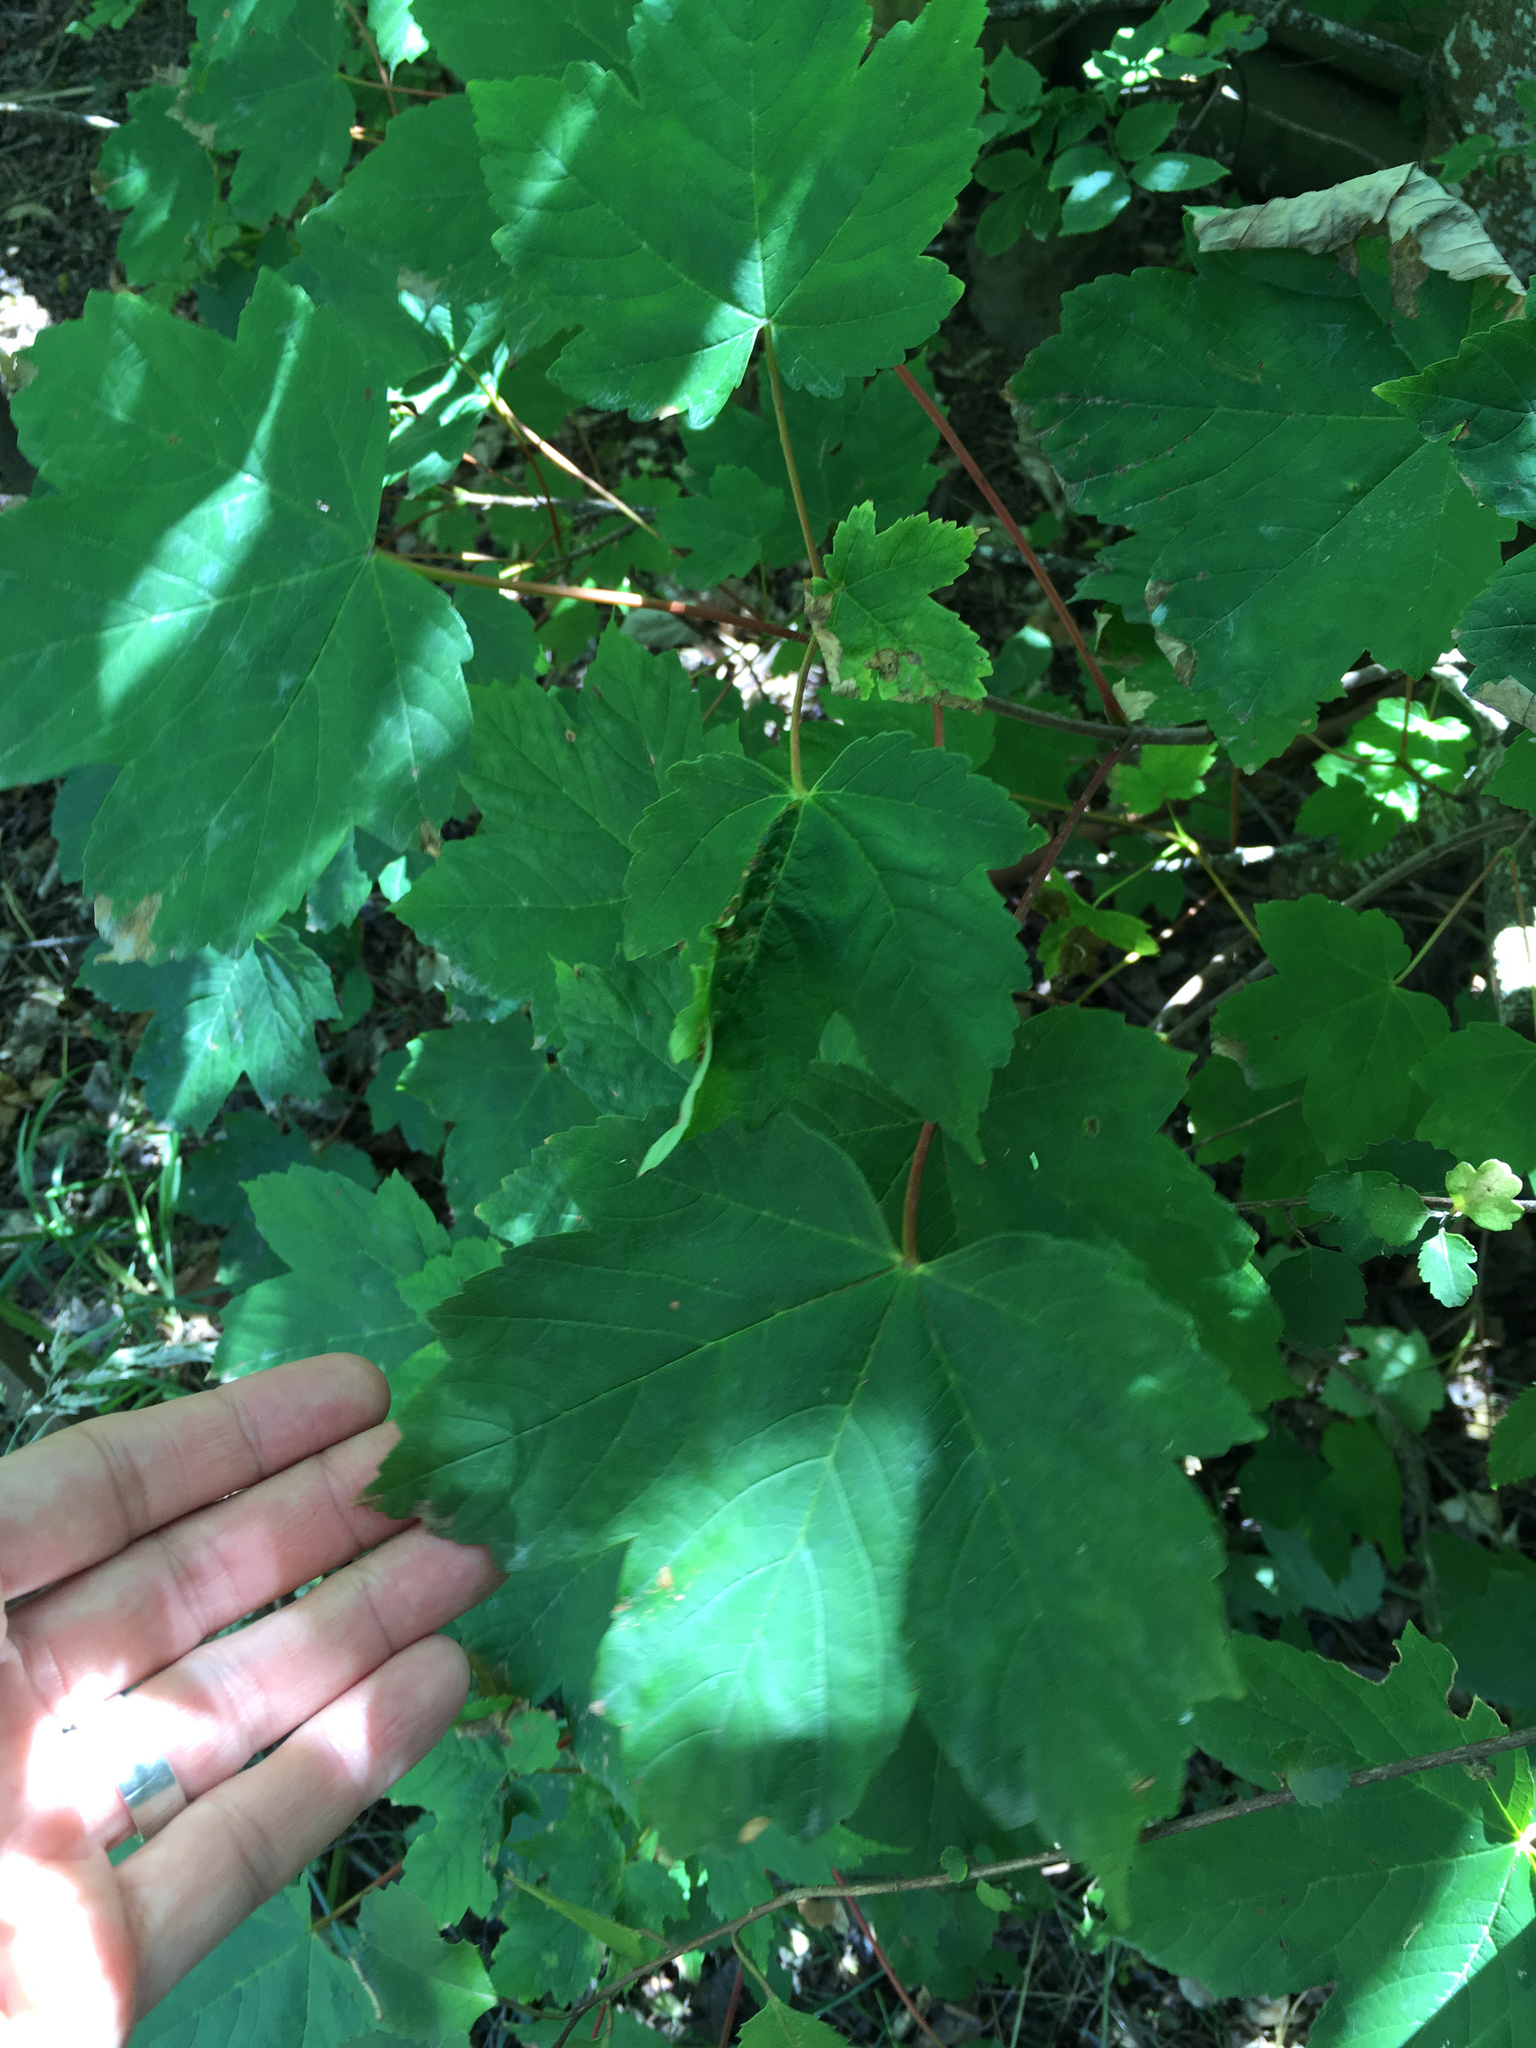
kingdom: Plantae
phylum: Tracheophyta
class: Magnoliopsida
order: Sapindales
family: Sapindaceae
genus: Acer
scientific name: Acer pseudoplatanus
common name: Sycamore
